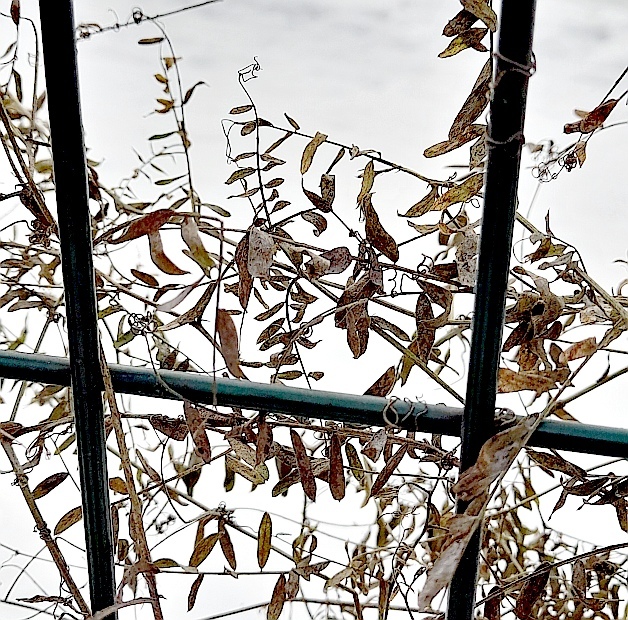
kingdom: Plantae
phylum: Tracheophyta
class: Magnoliopsida
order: Fabales
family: Fabaceae
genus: Vicia
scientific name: Vicia cracca
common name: Bird vetch
